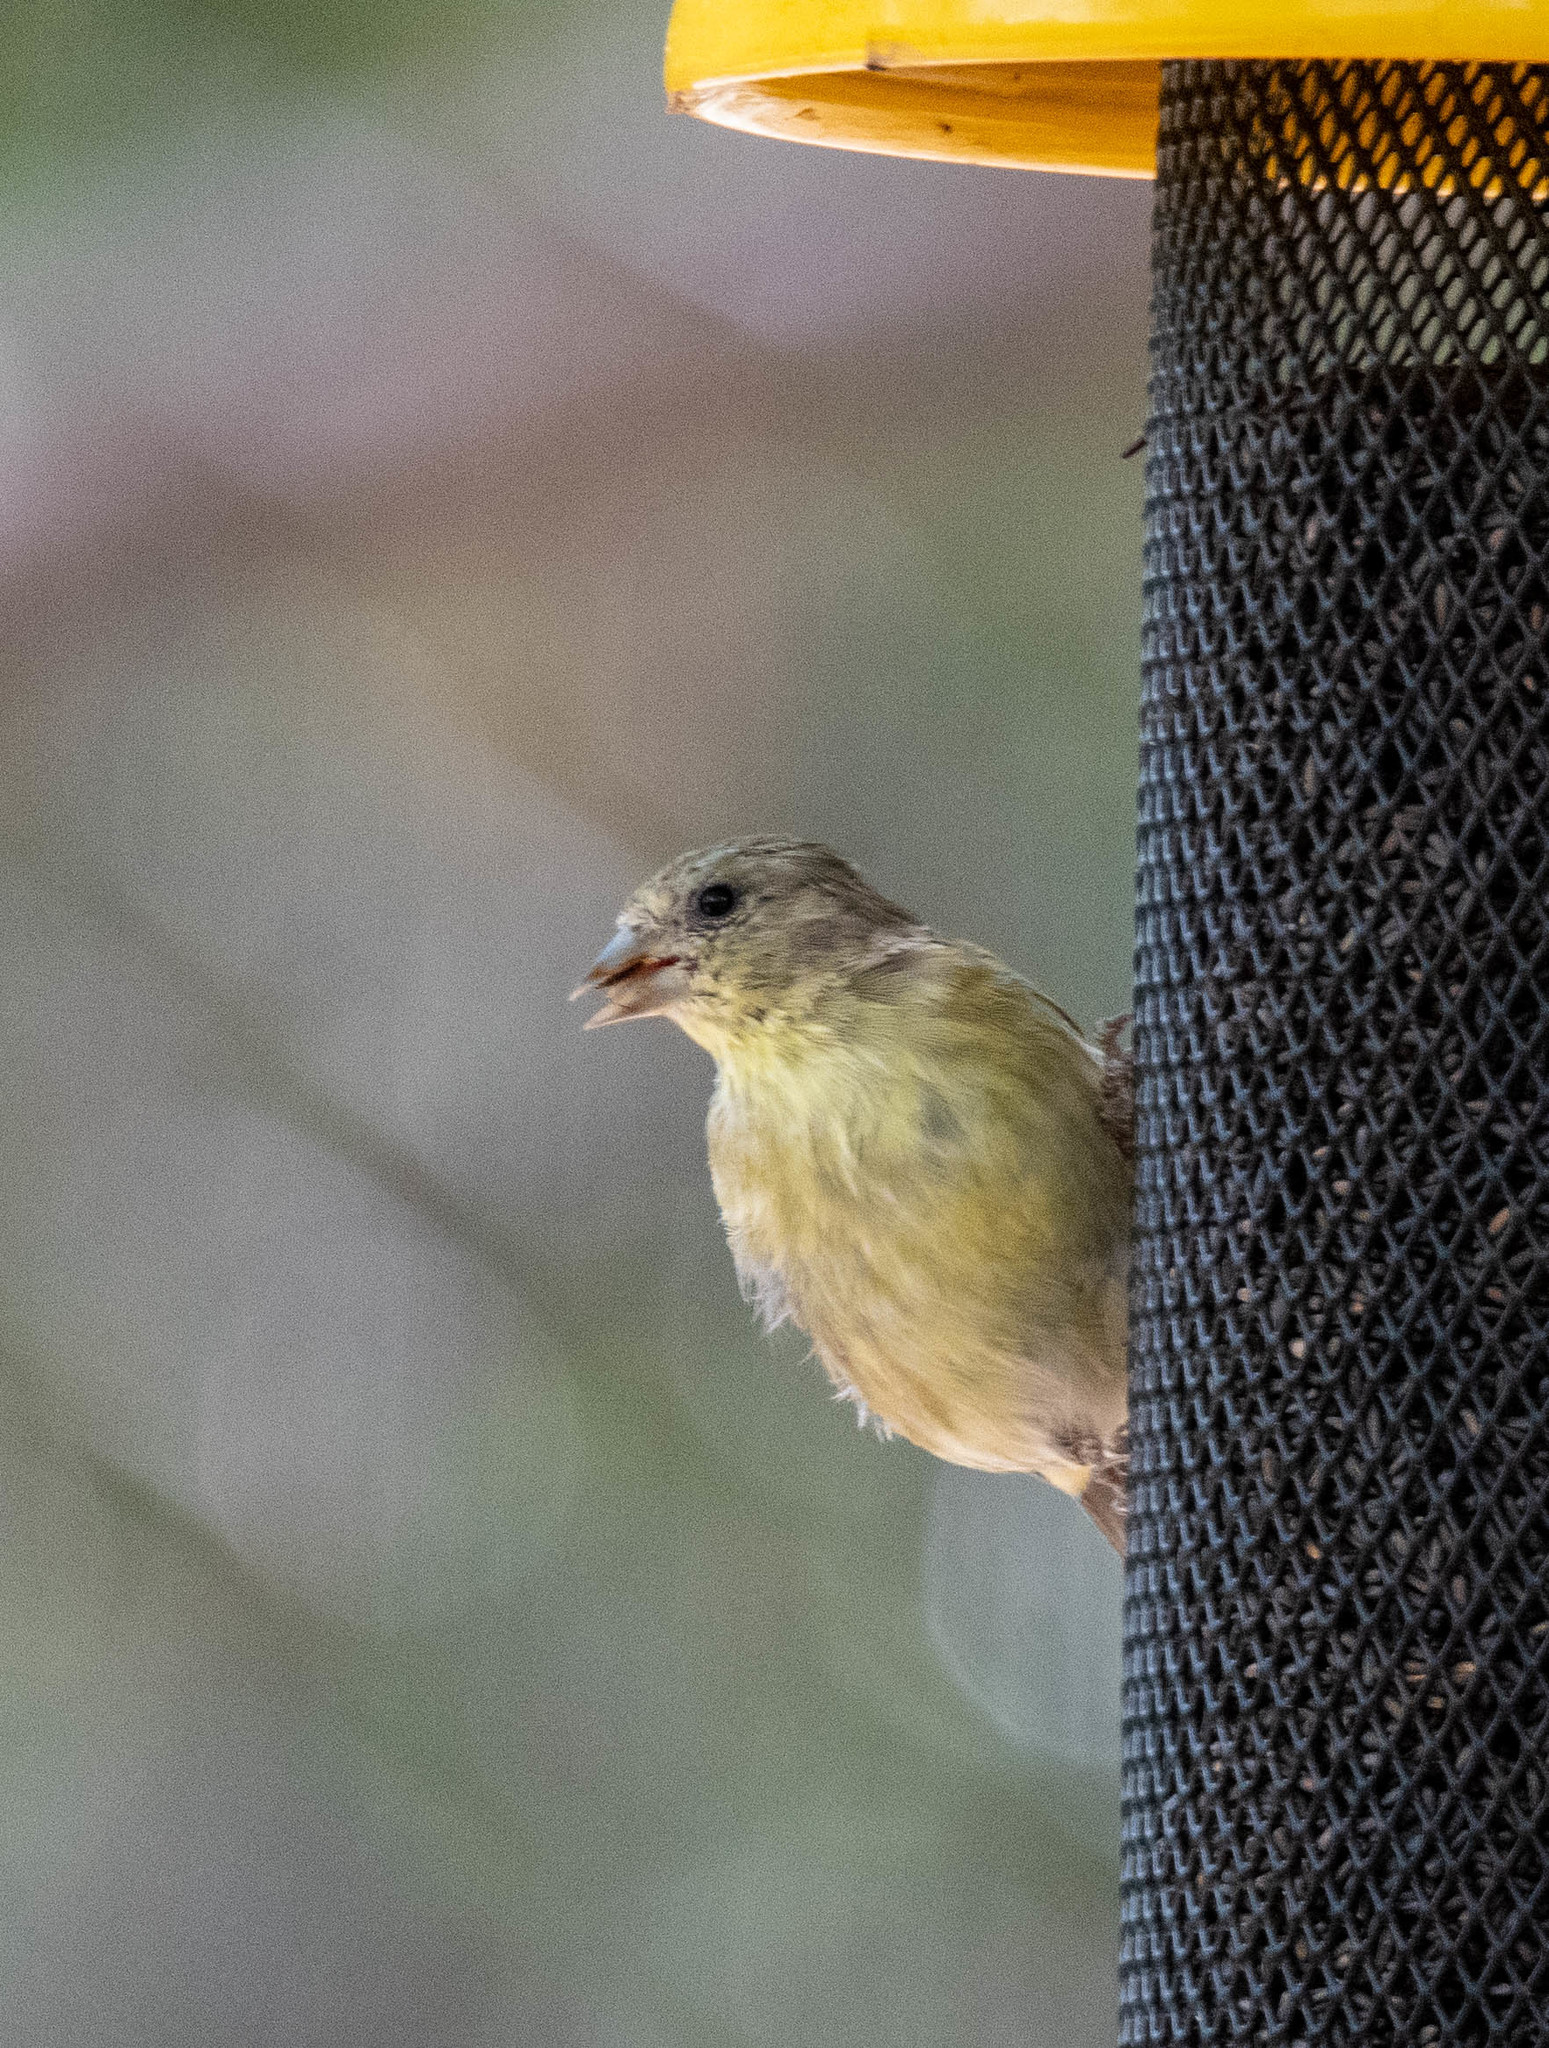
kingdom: Animalia
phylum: Chordata
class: Aves
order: Passeriformes
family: Fringillidae
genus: Spinus
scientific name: Spinus psaltria
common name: Lesser goldfinch
